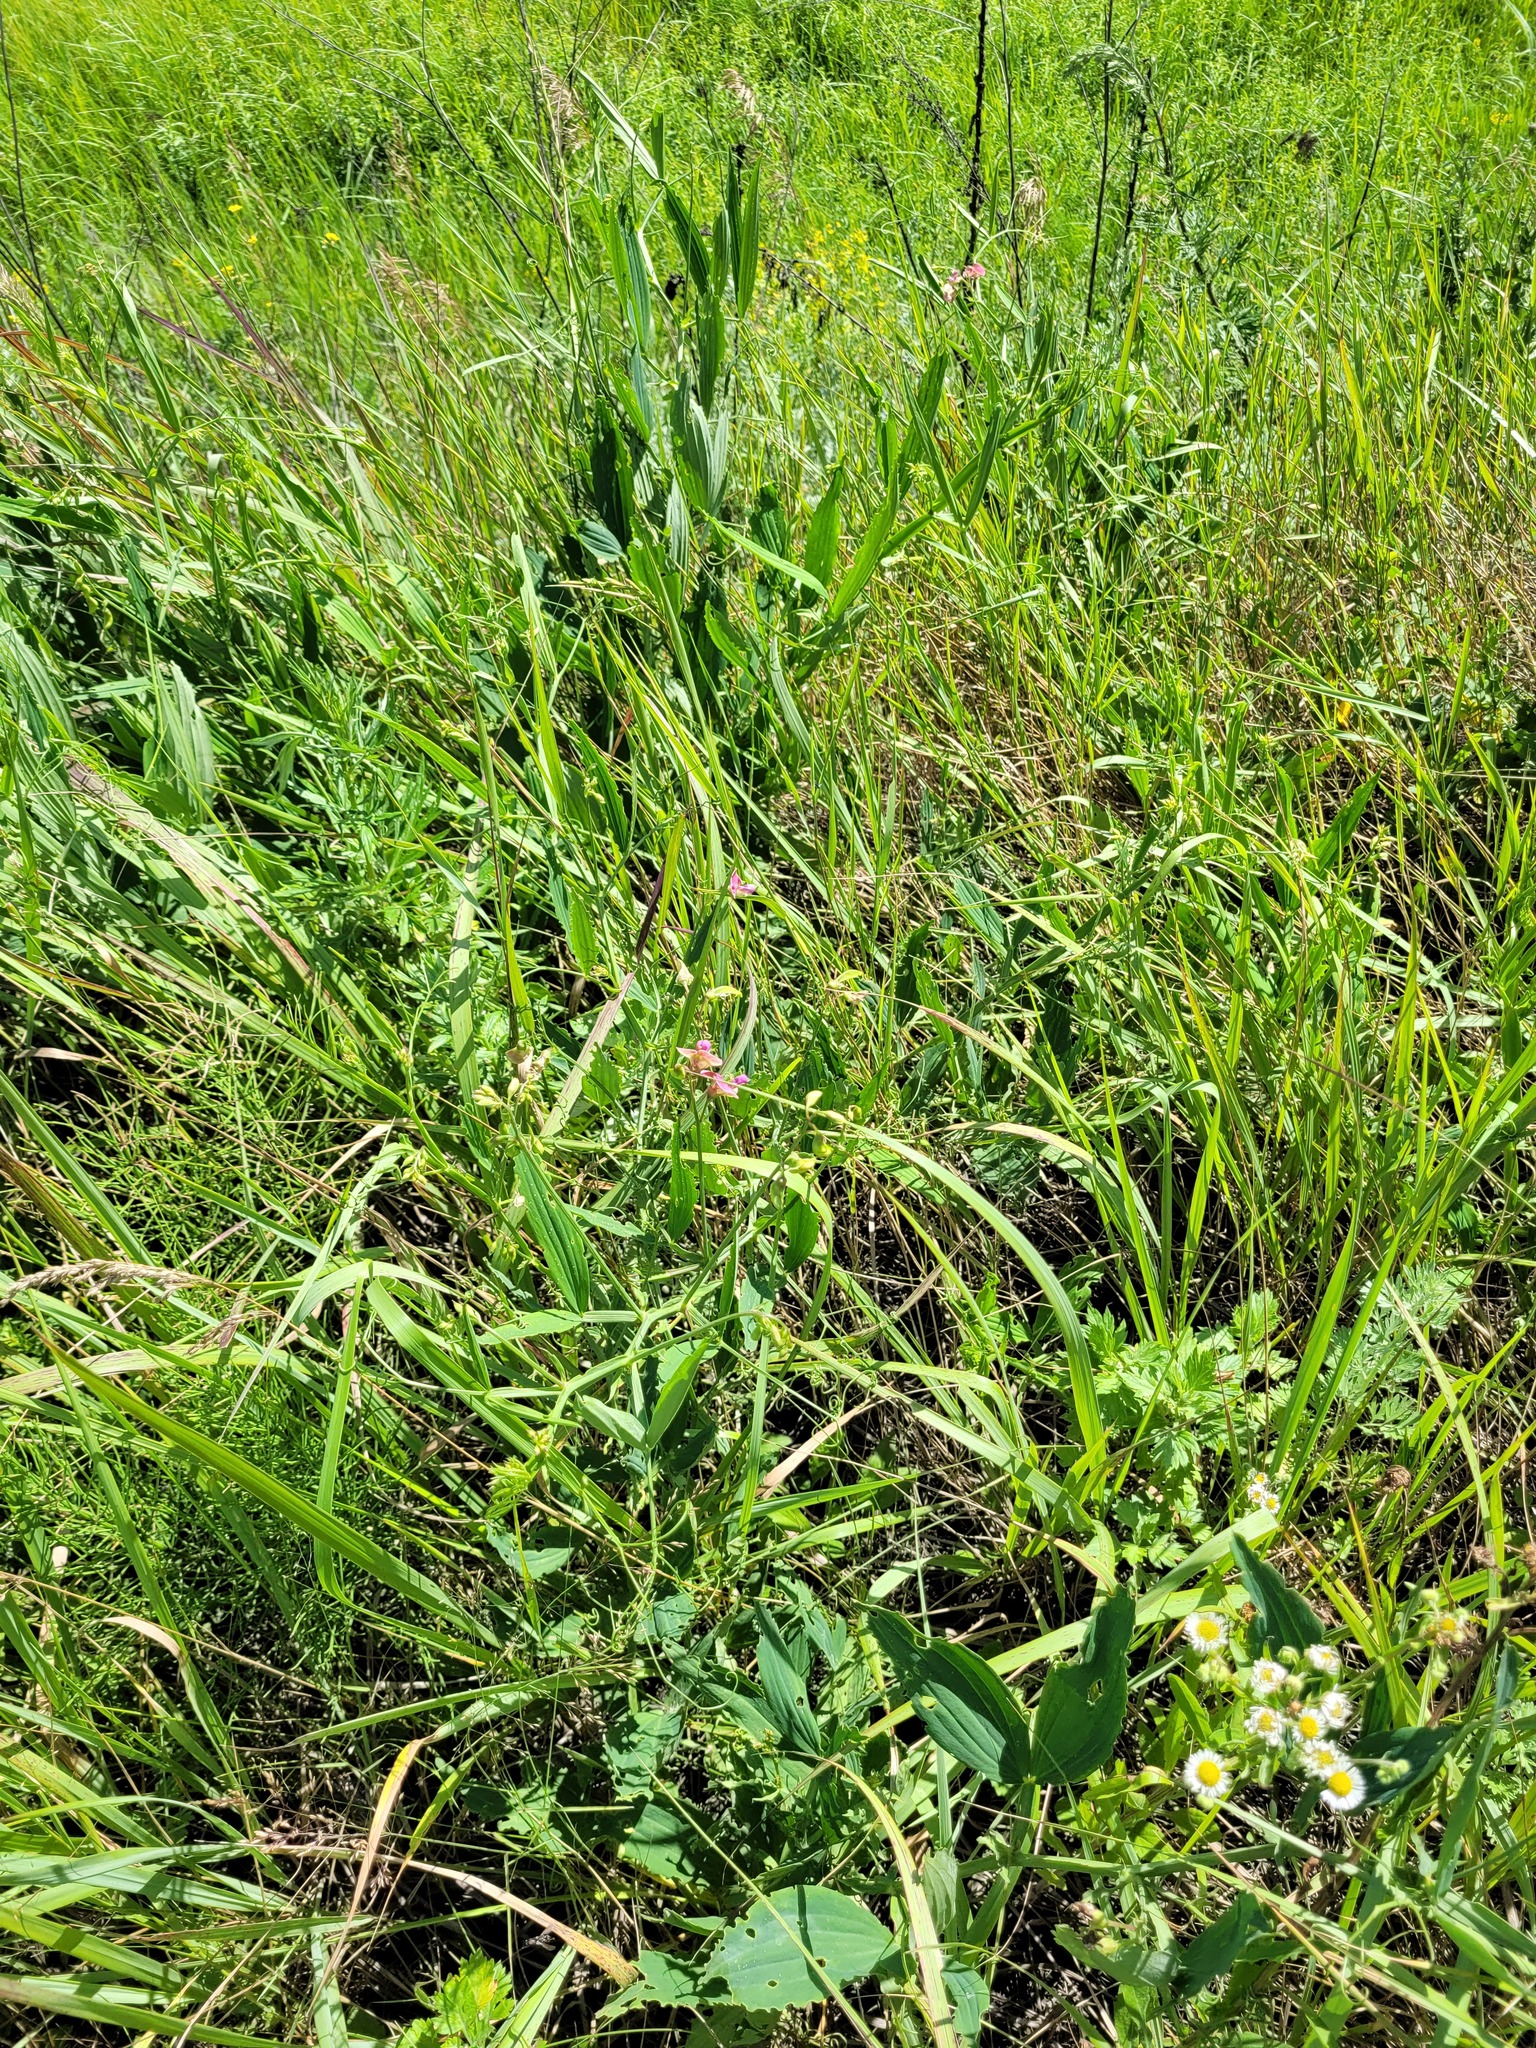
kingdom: Plantae
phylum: Tracheophyta
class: Magnoliopsida
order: Fabales
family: Fabaceae
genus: Lathyrus
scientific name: Lathyrus sylvestris
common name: Flat pea
